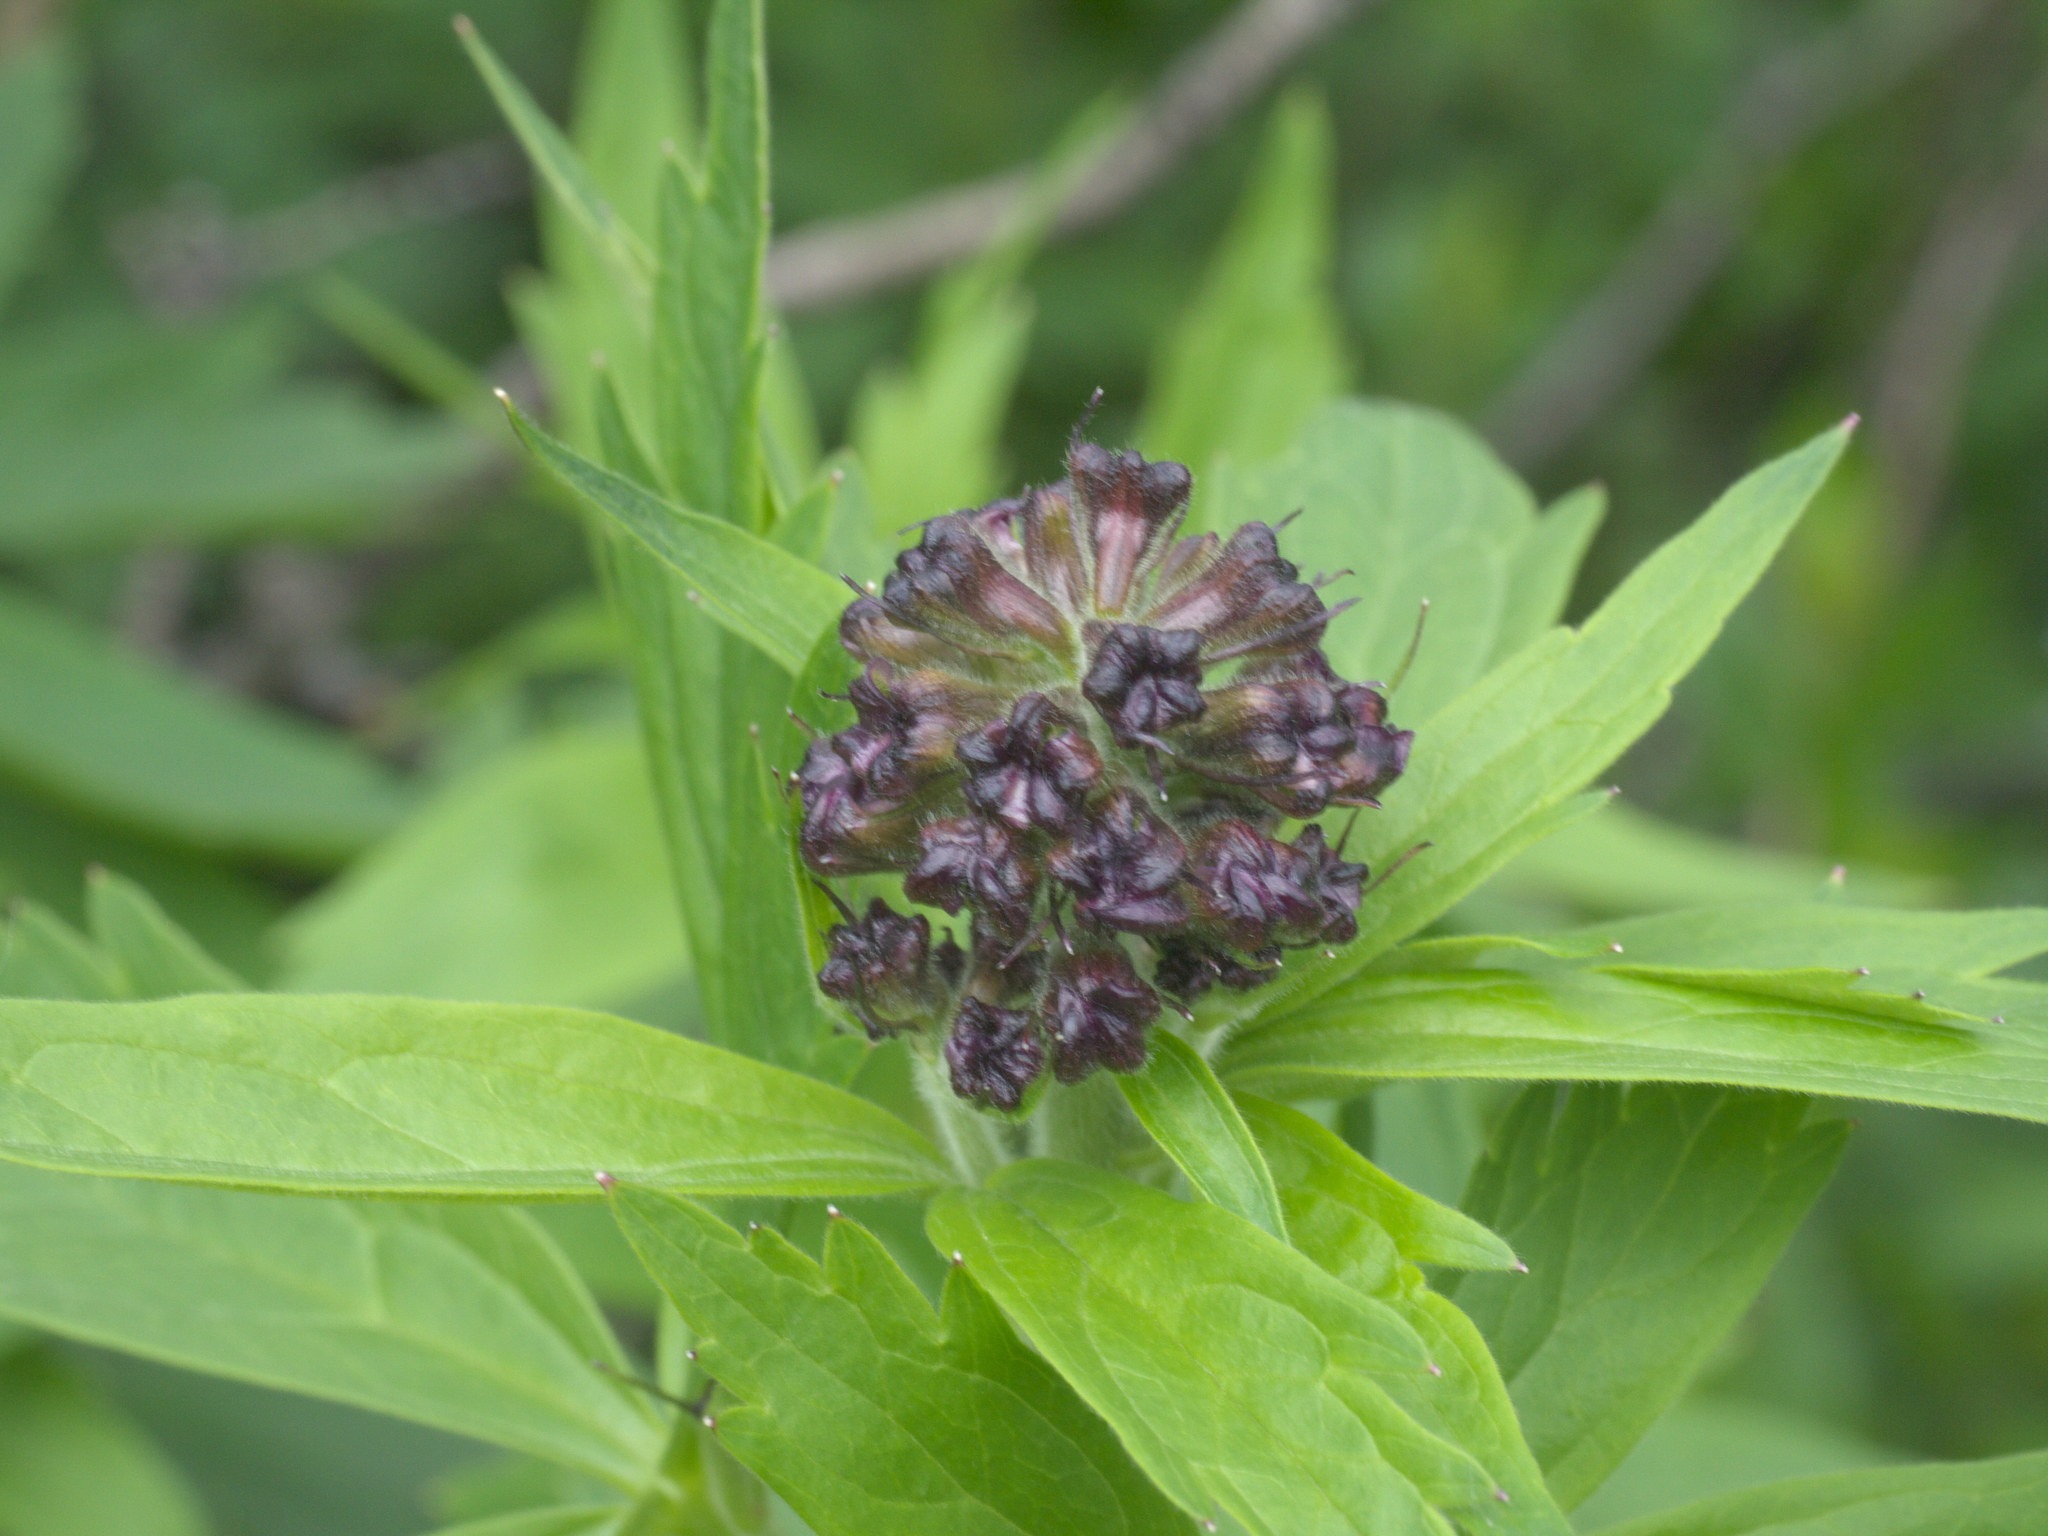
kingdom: Plantae
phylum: Tracheophyta
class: Magnoliopsida
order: Ranunculales
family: Ranunculaceae
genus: Delphinium
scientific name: Delphinium barbeyi
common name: Subalpine larkspur
